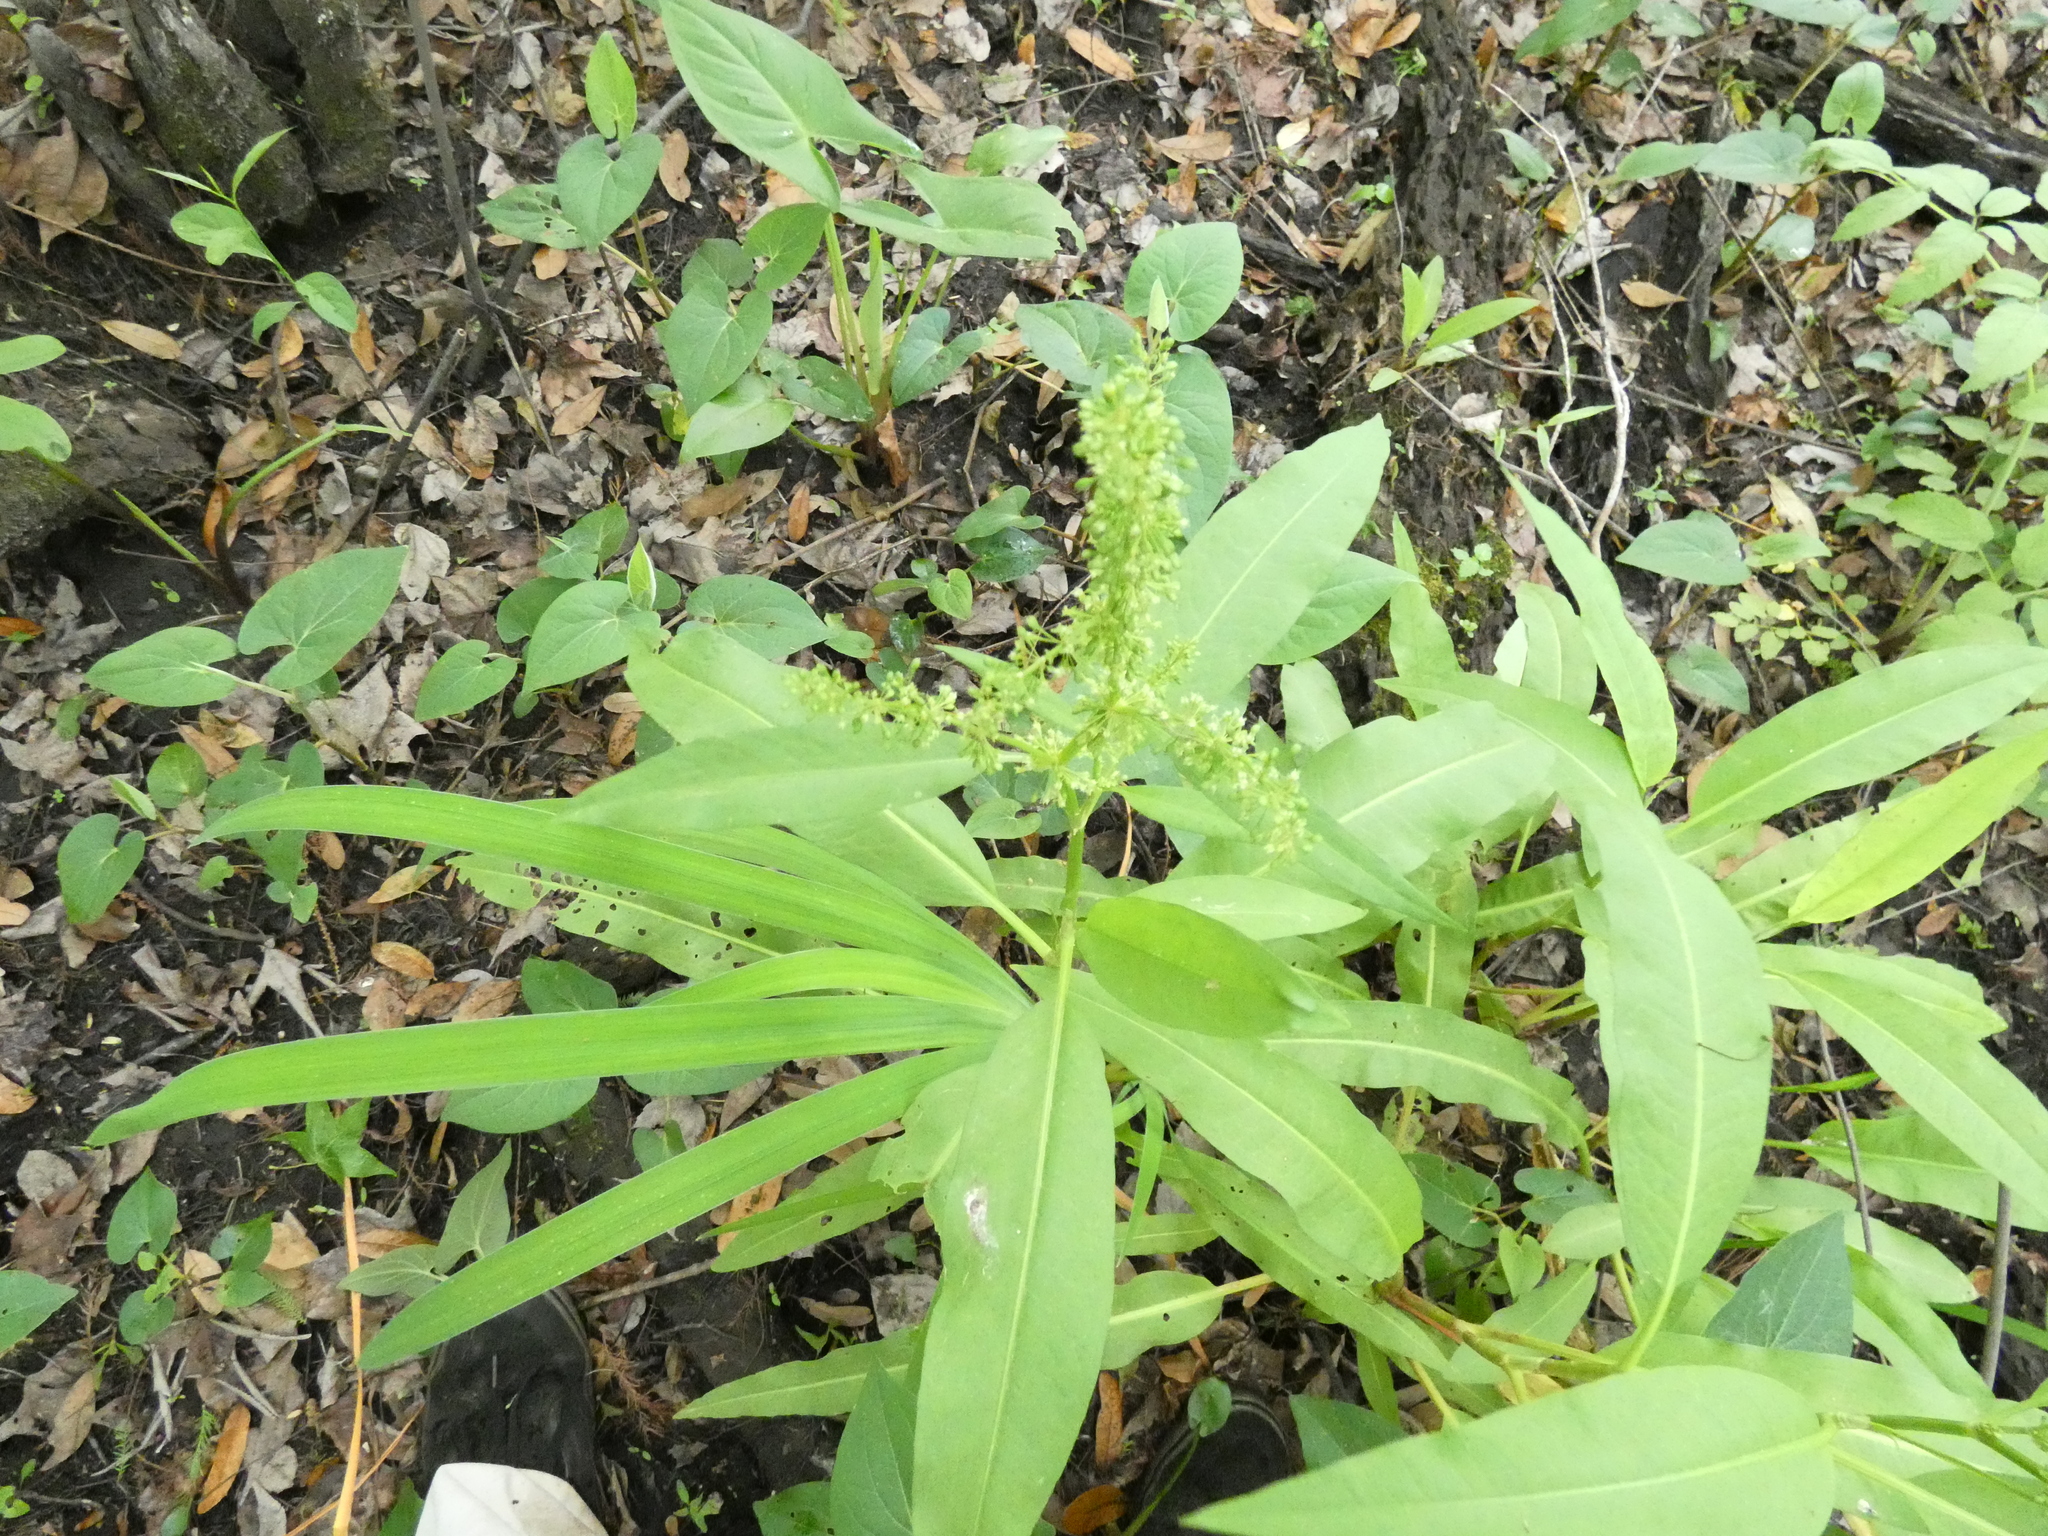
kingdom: Plantae
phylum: Tracheophyta
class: Magnoliopsida
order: Caryophyllales
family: Polygonaceae
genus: Rumex
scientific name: Rumex verticillatus
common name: Swamp dock
